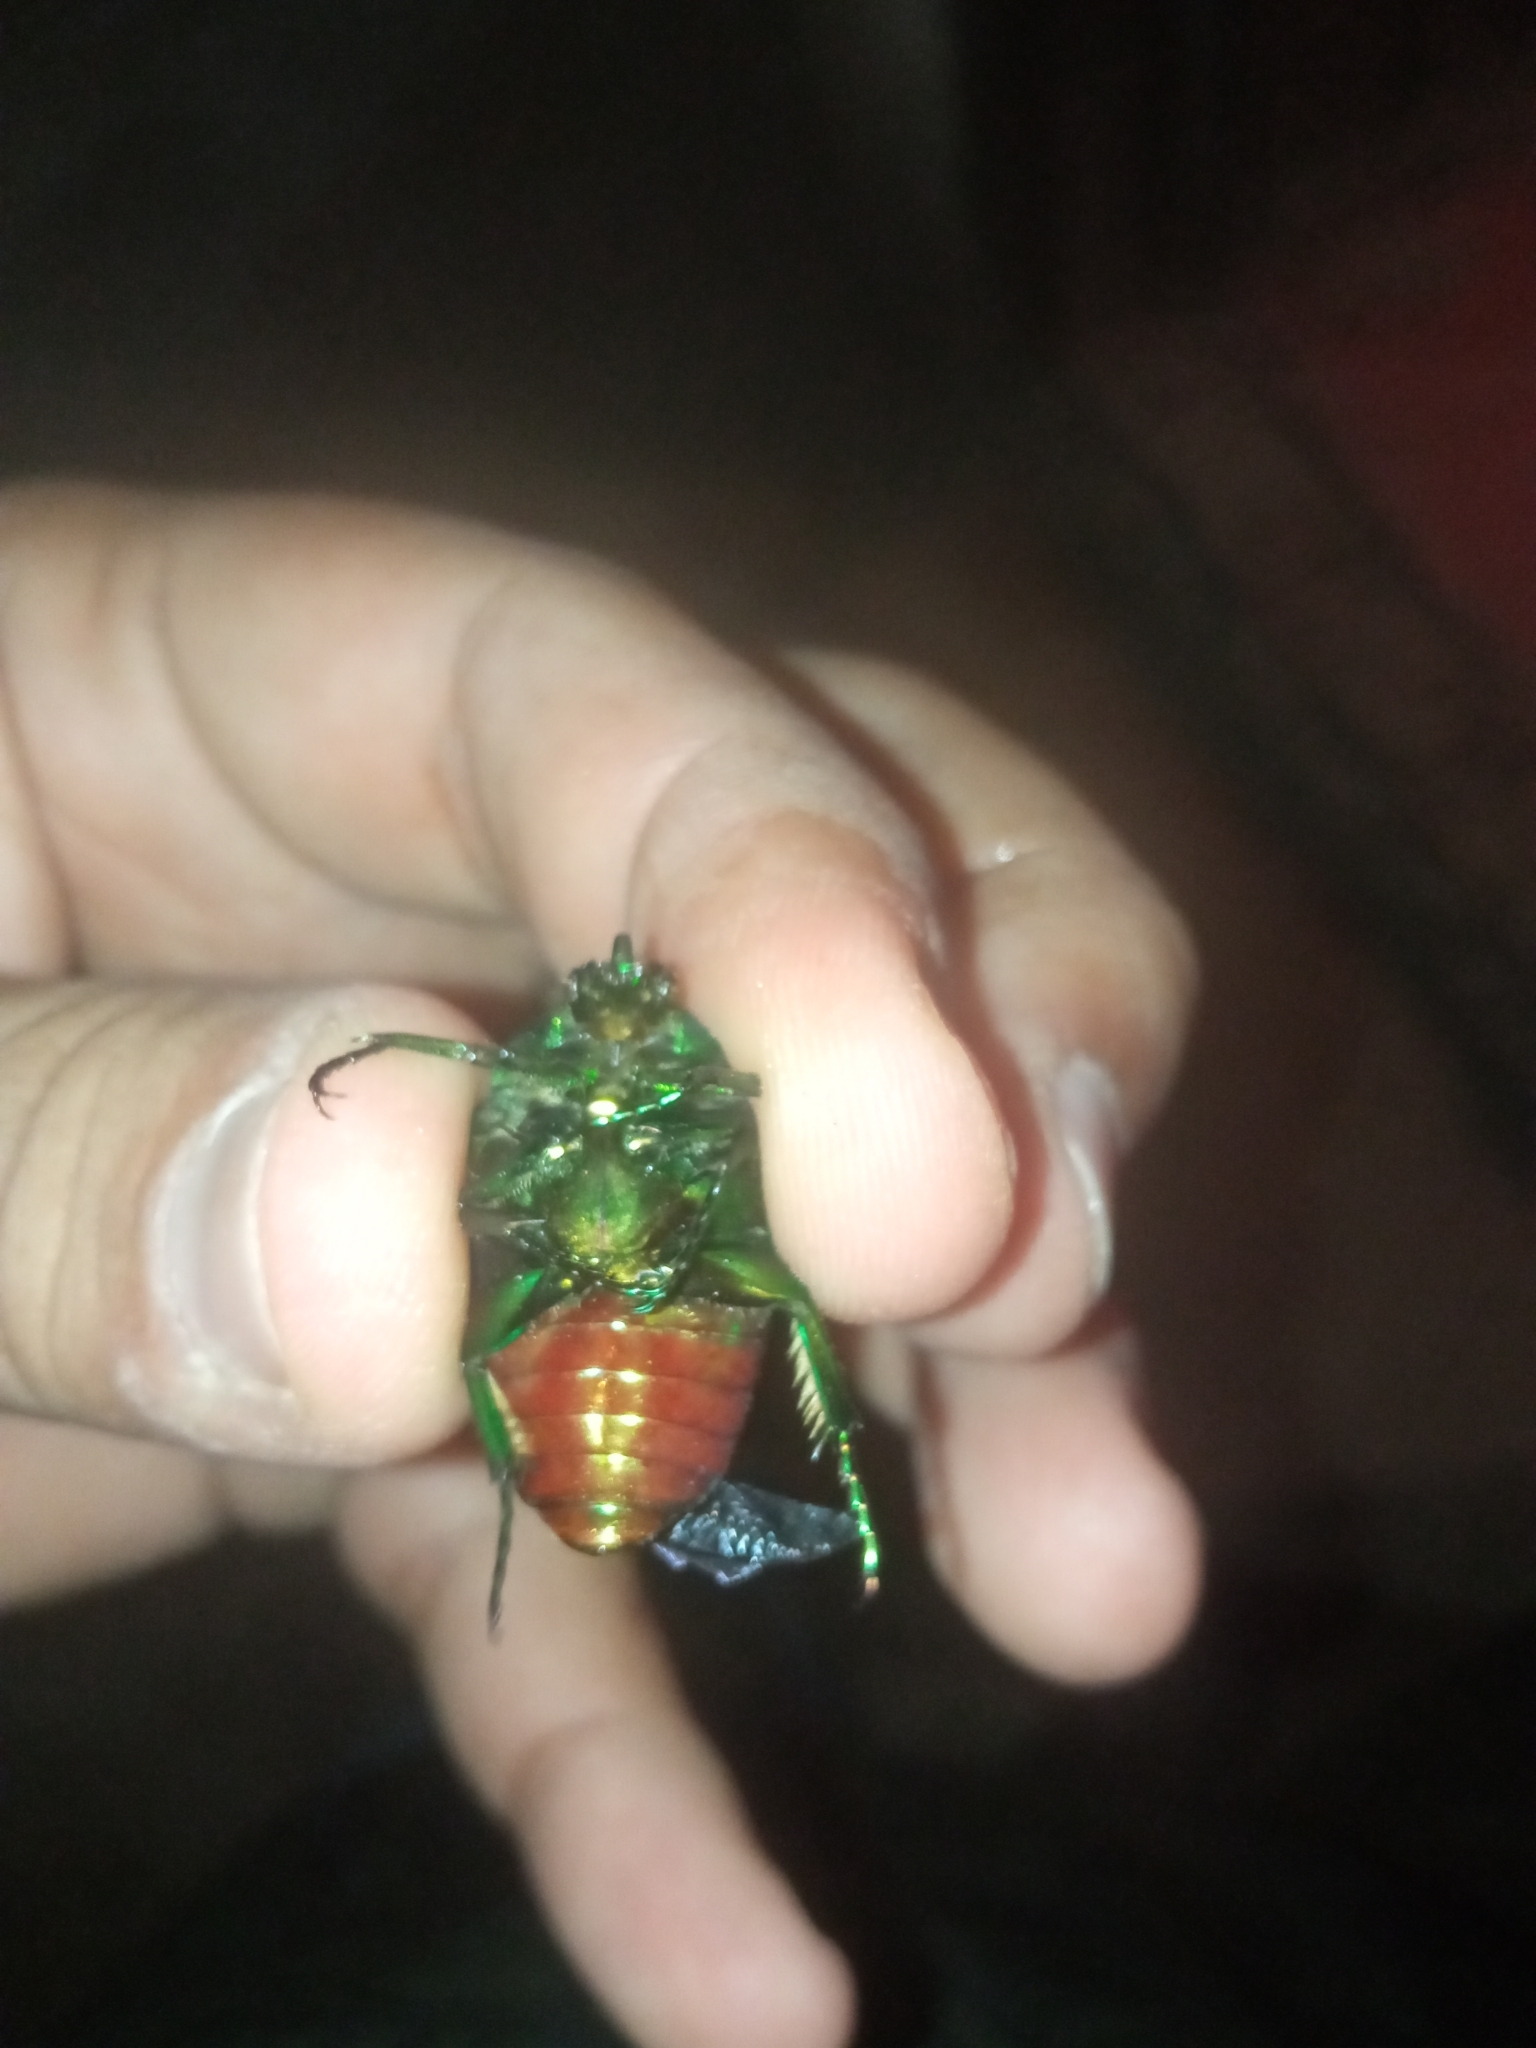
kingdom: Animalia
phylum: Arthropoda
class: Insecta
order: Coleoptera
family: Scarabaeidae
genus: Cotinis
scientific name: Cotinis mutabilis
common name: Figeater beetle
